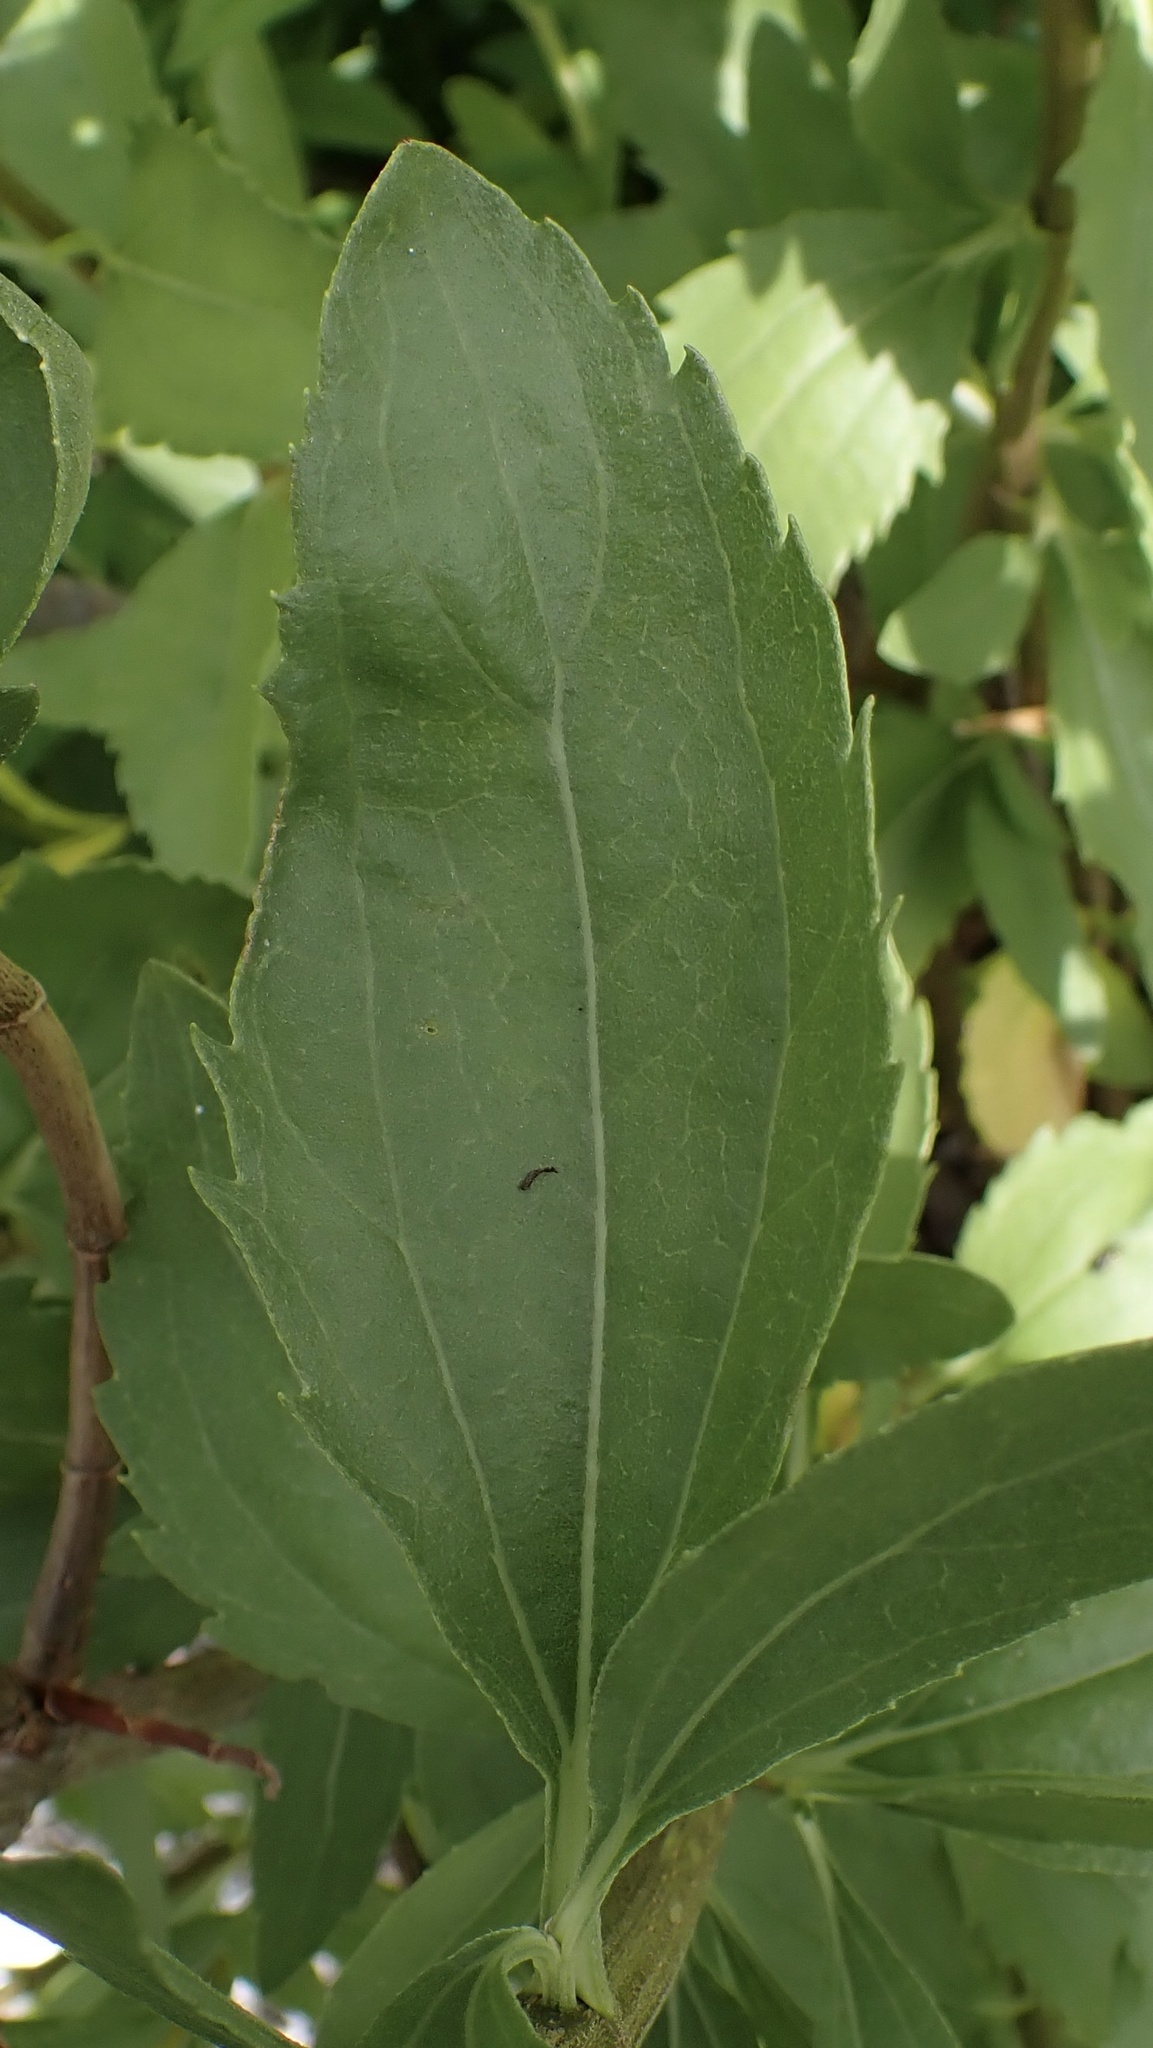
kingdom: Plantae
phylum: Tracheophyta
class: Magnoliopsida
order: Asterales
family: Asteraceae
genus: Iva
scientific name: Iva frutescens
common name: Big-leaved marsh-elder
